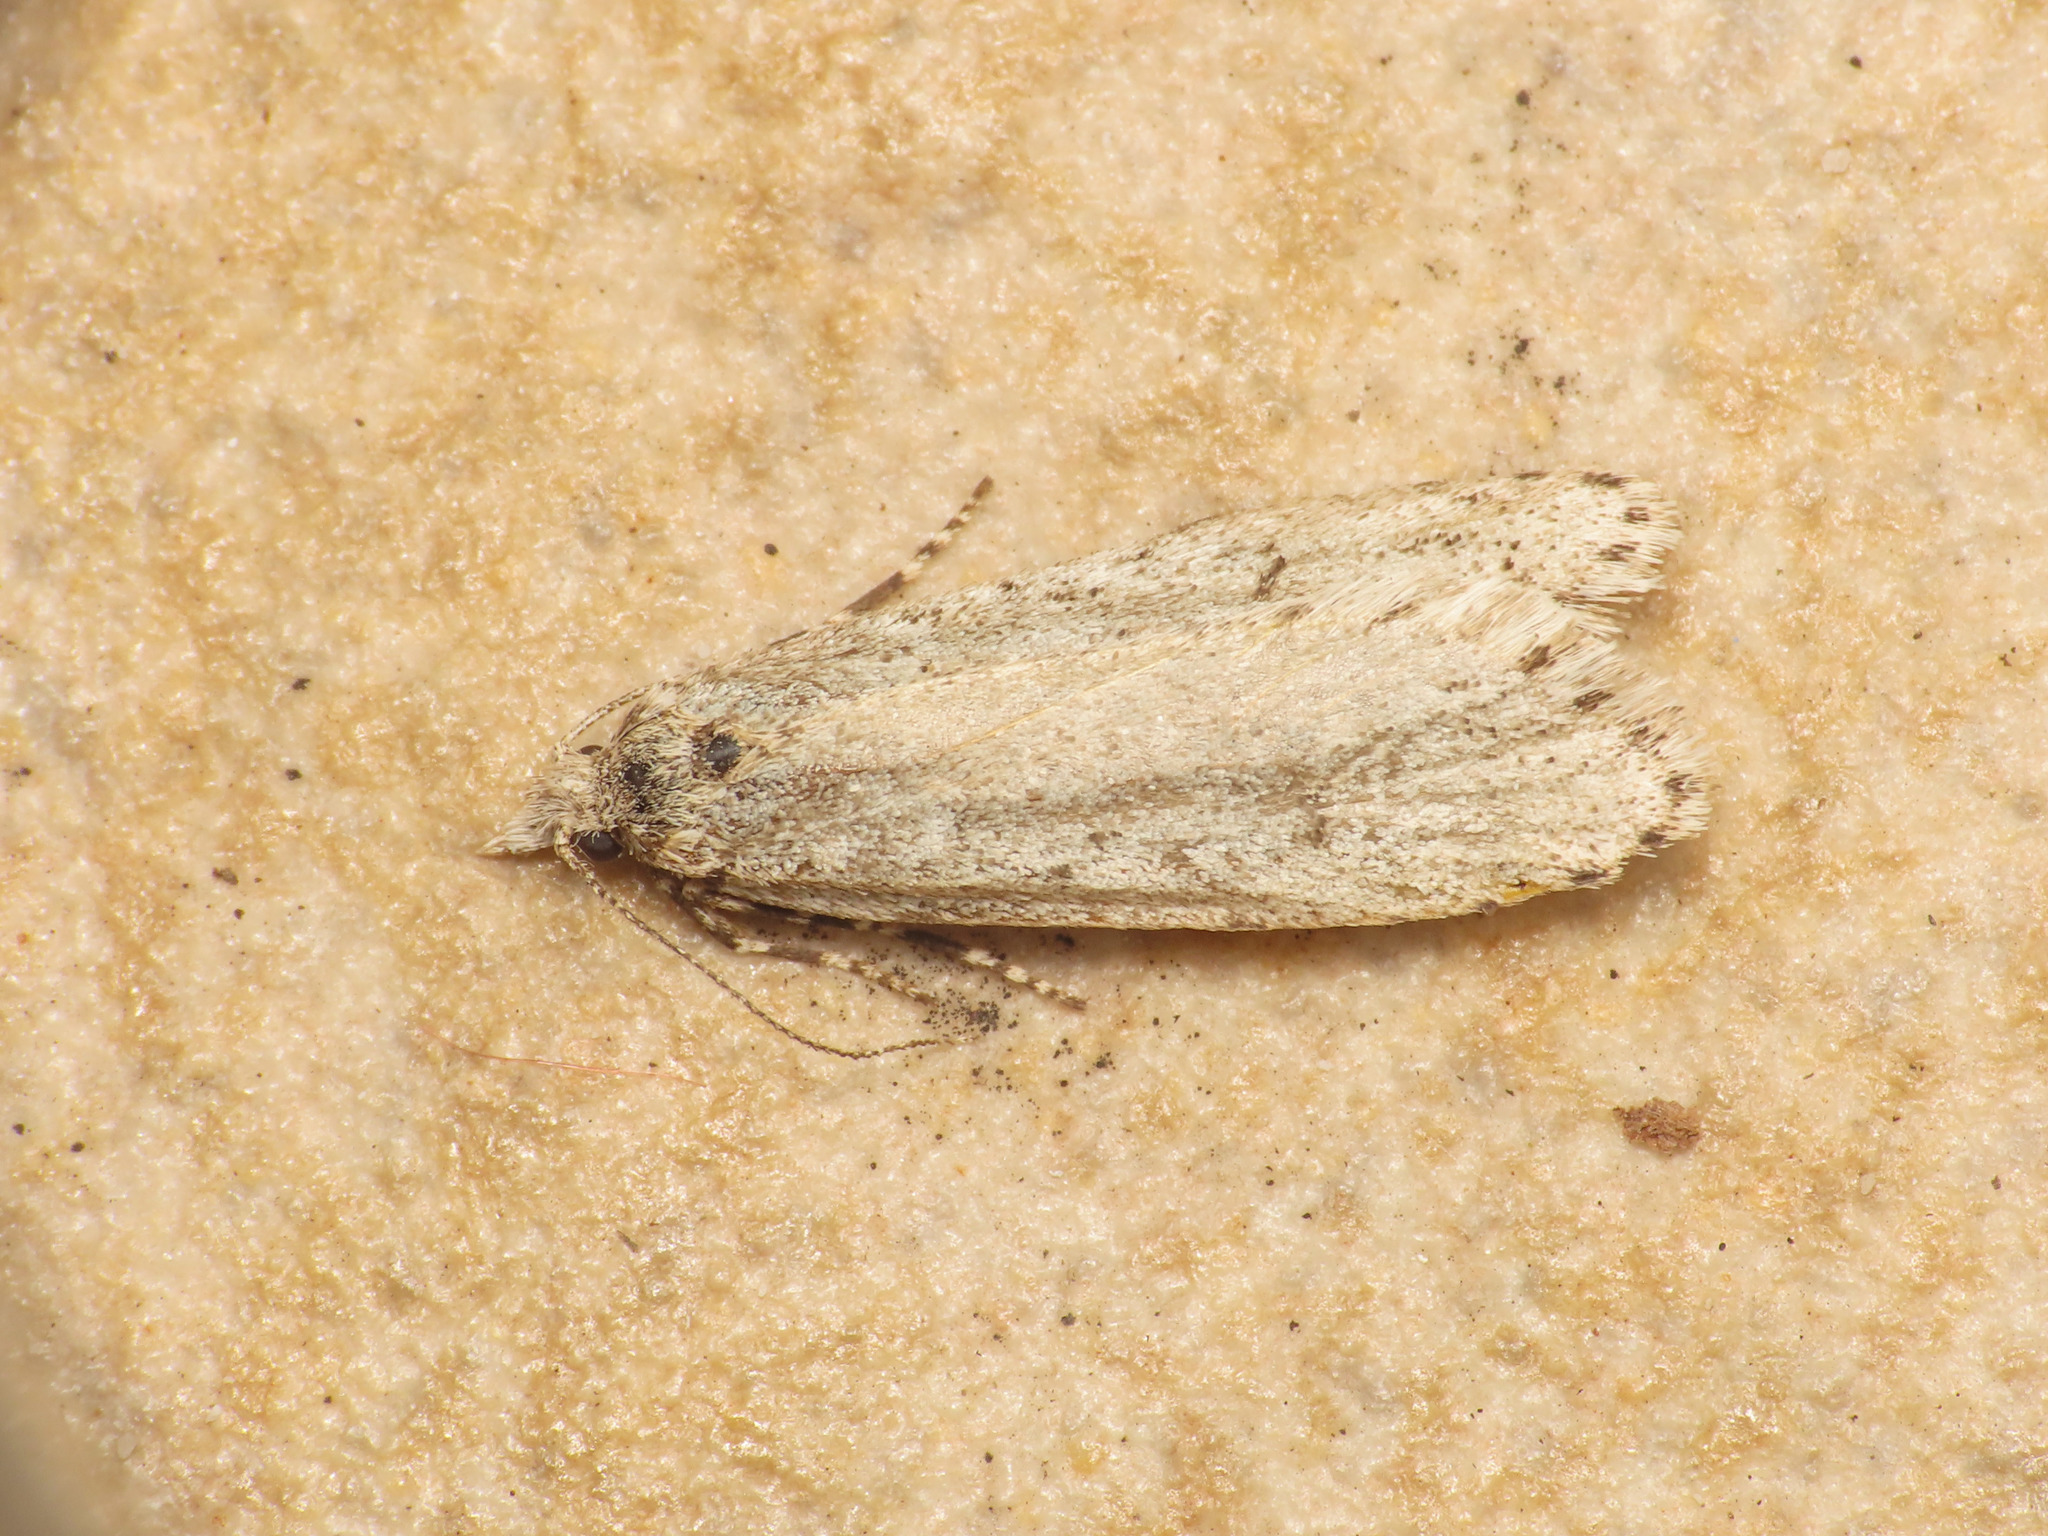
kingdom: Animalia
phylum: Arthropoda
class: Insecta
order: Lepidoptera
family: Lypusidae
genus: Diurnea
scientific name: Diurnea fagella
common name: March tubic
